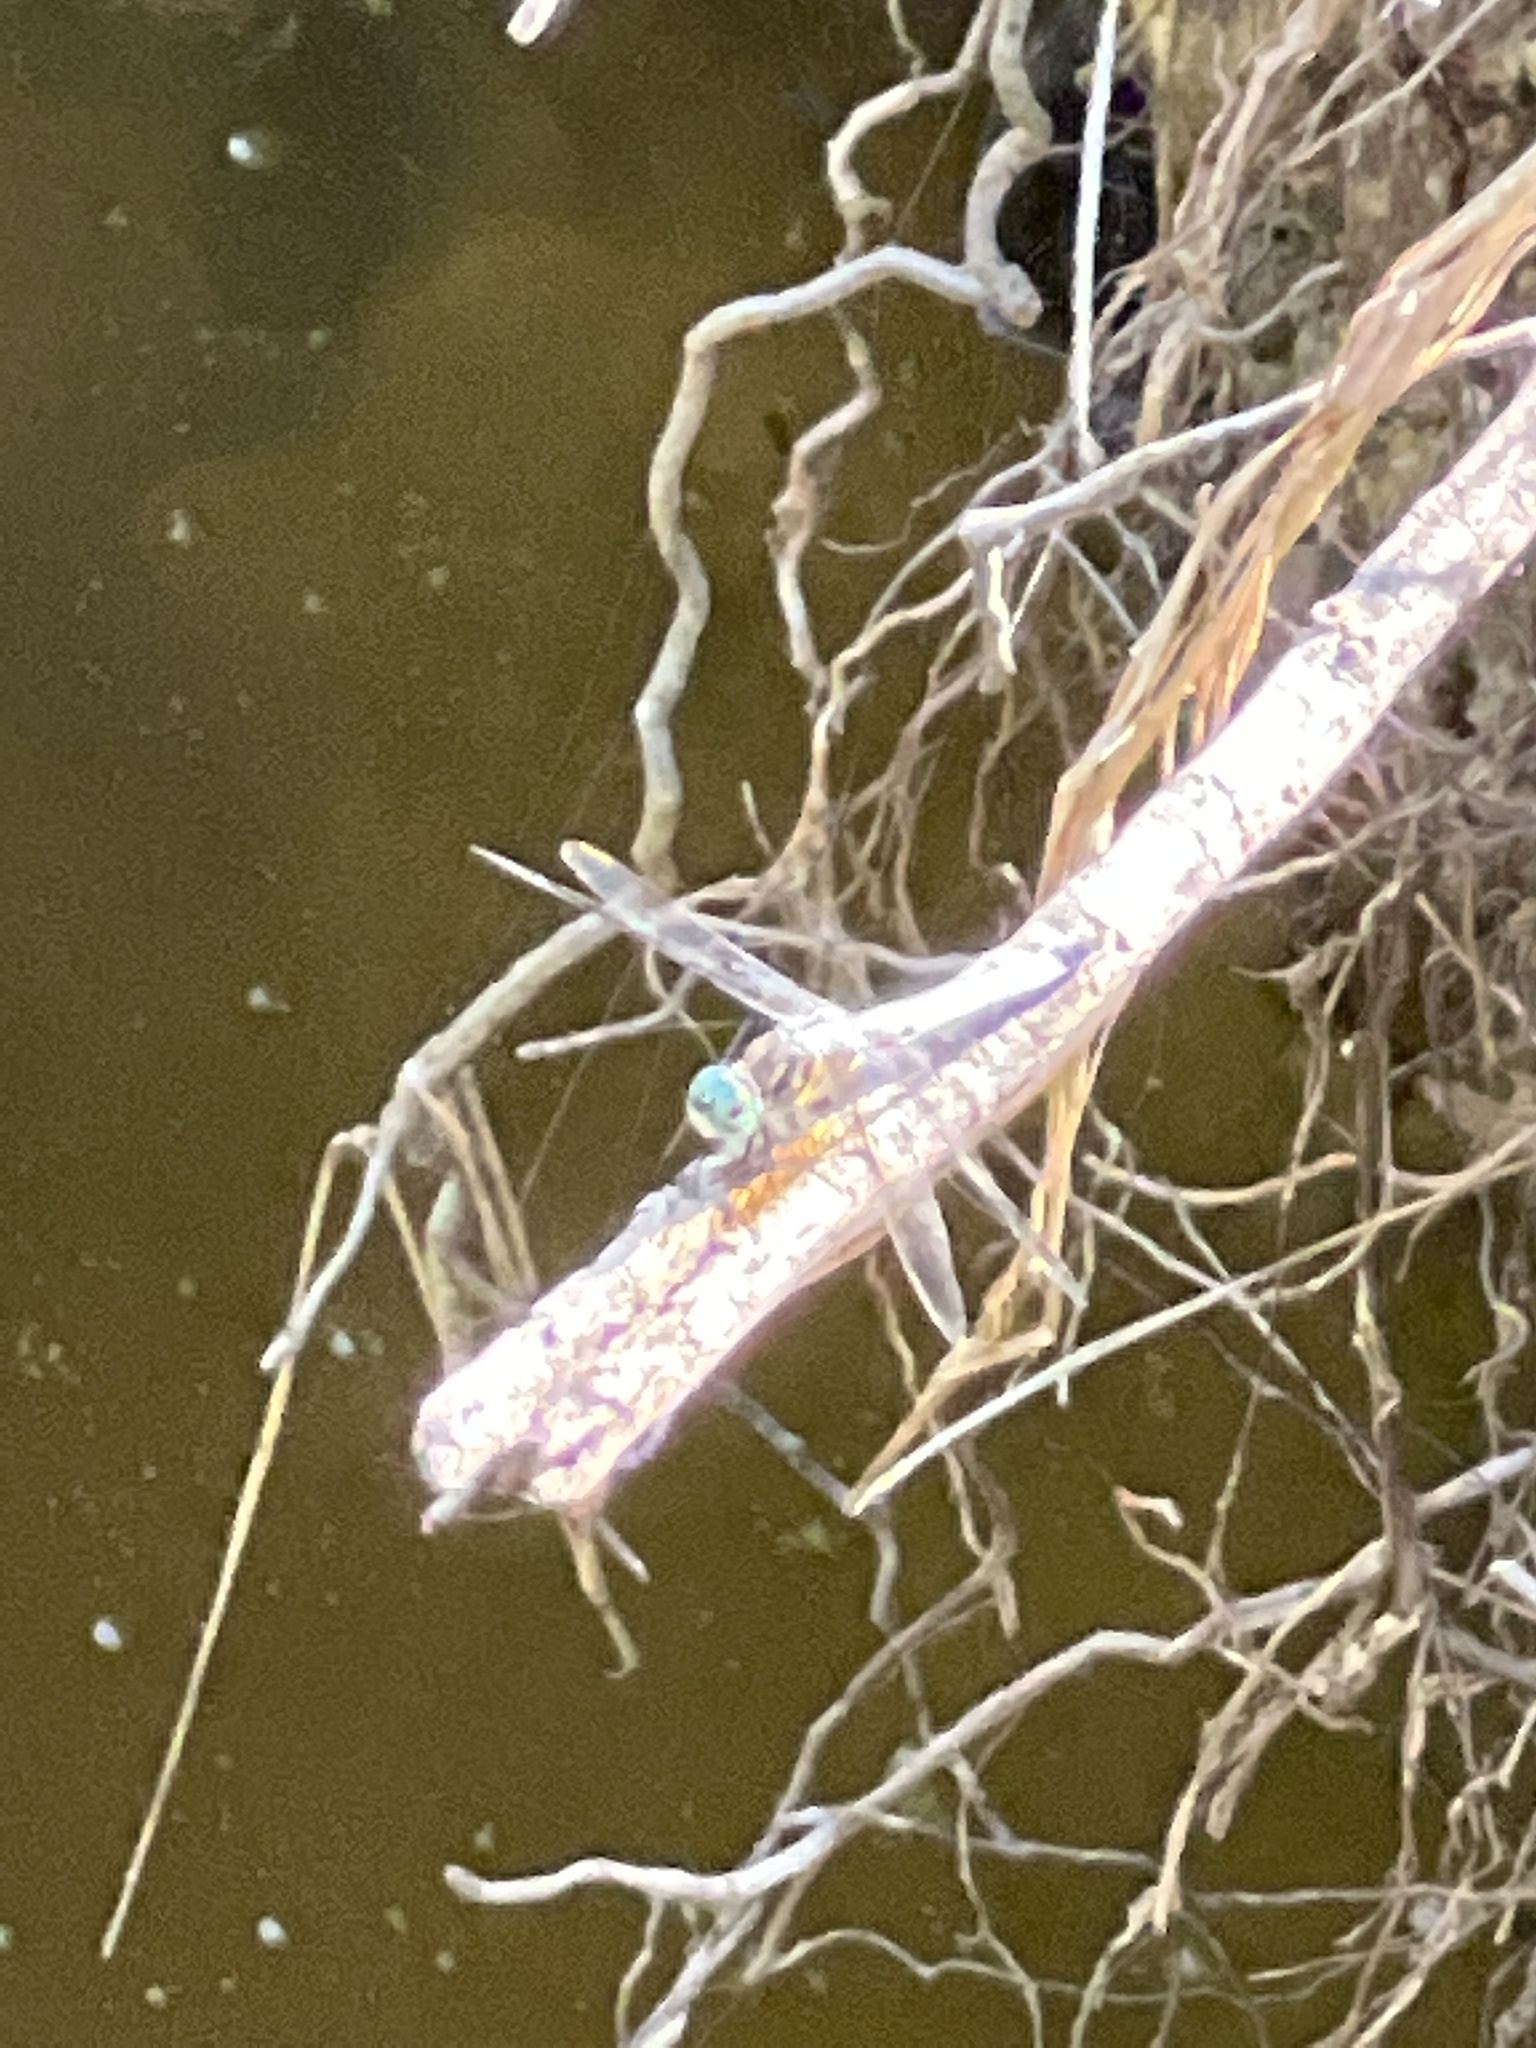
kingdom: Animalia
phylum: Arthropoda
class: Insecta
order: Odonata
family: Libellulidae
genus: Pachydiplax
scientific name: Pachydiplax longipennis
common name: Blue dasher
